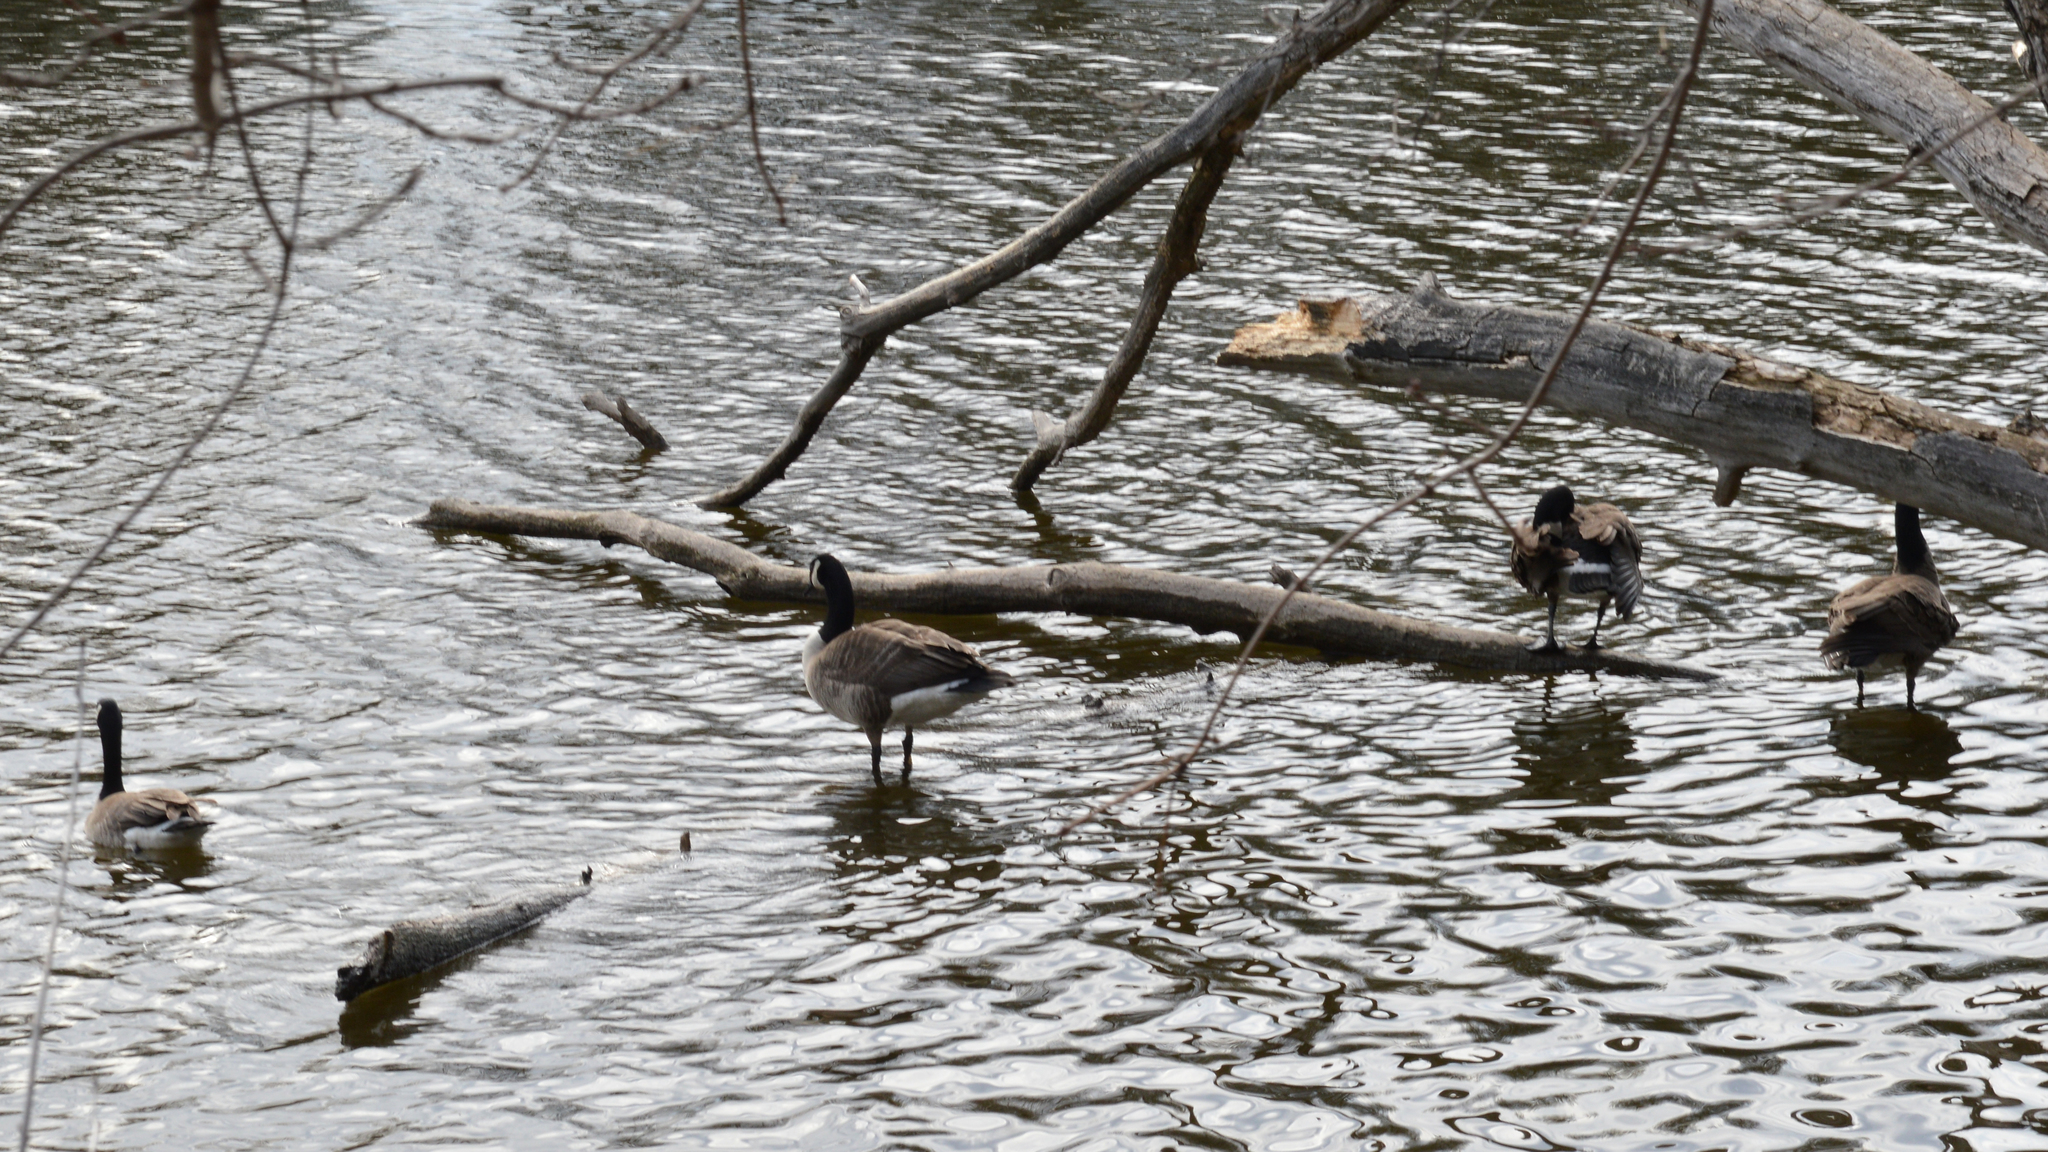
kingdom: Animalia
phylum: Chordata
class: Aves
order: Anseriformes
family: Anatidae
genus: Branta
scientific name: Branta canadensis
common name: Canada goose
